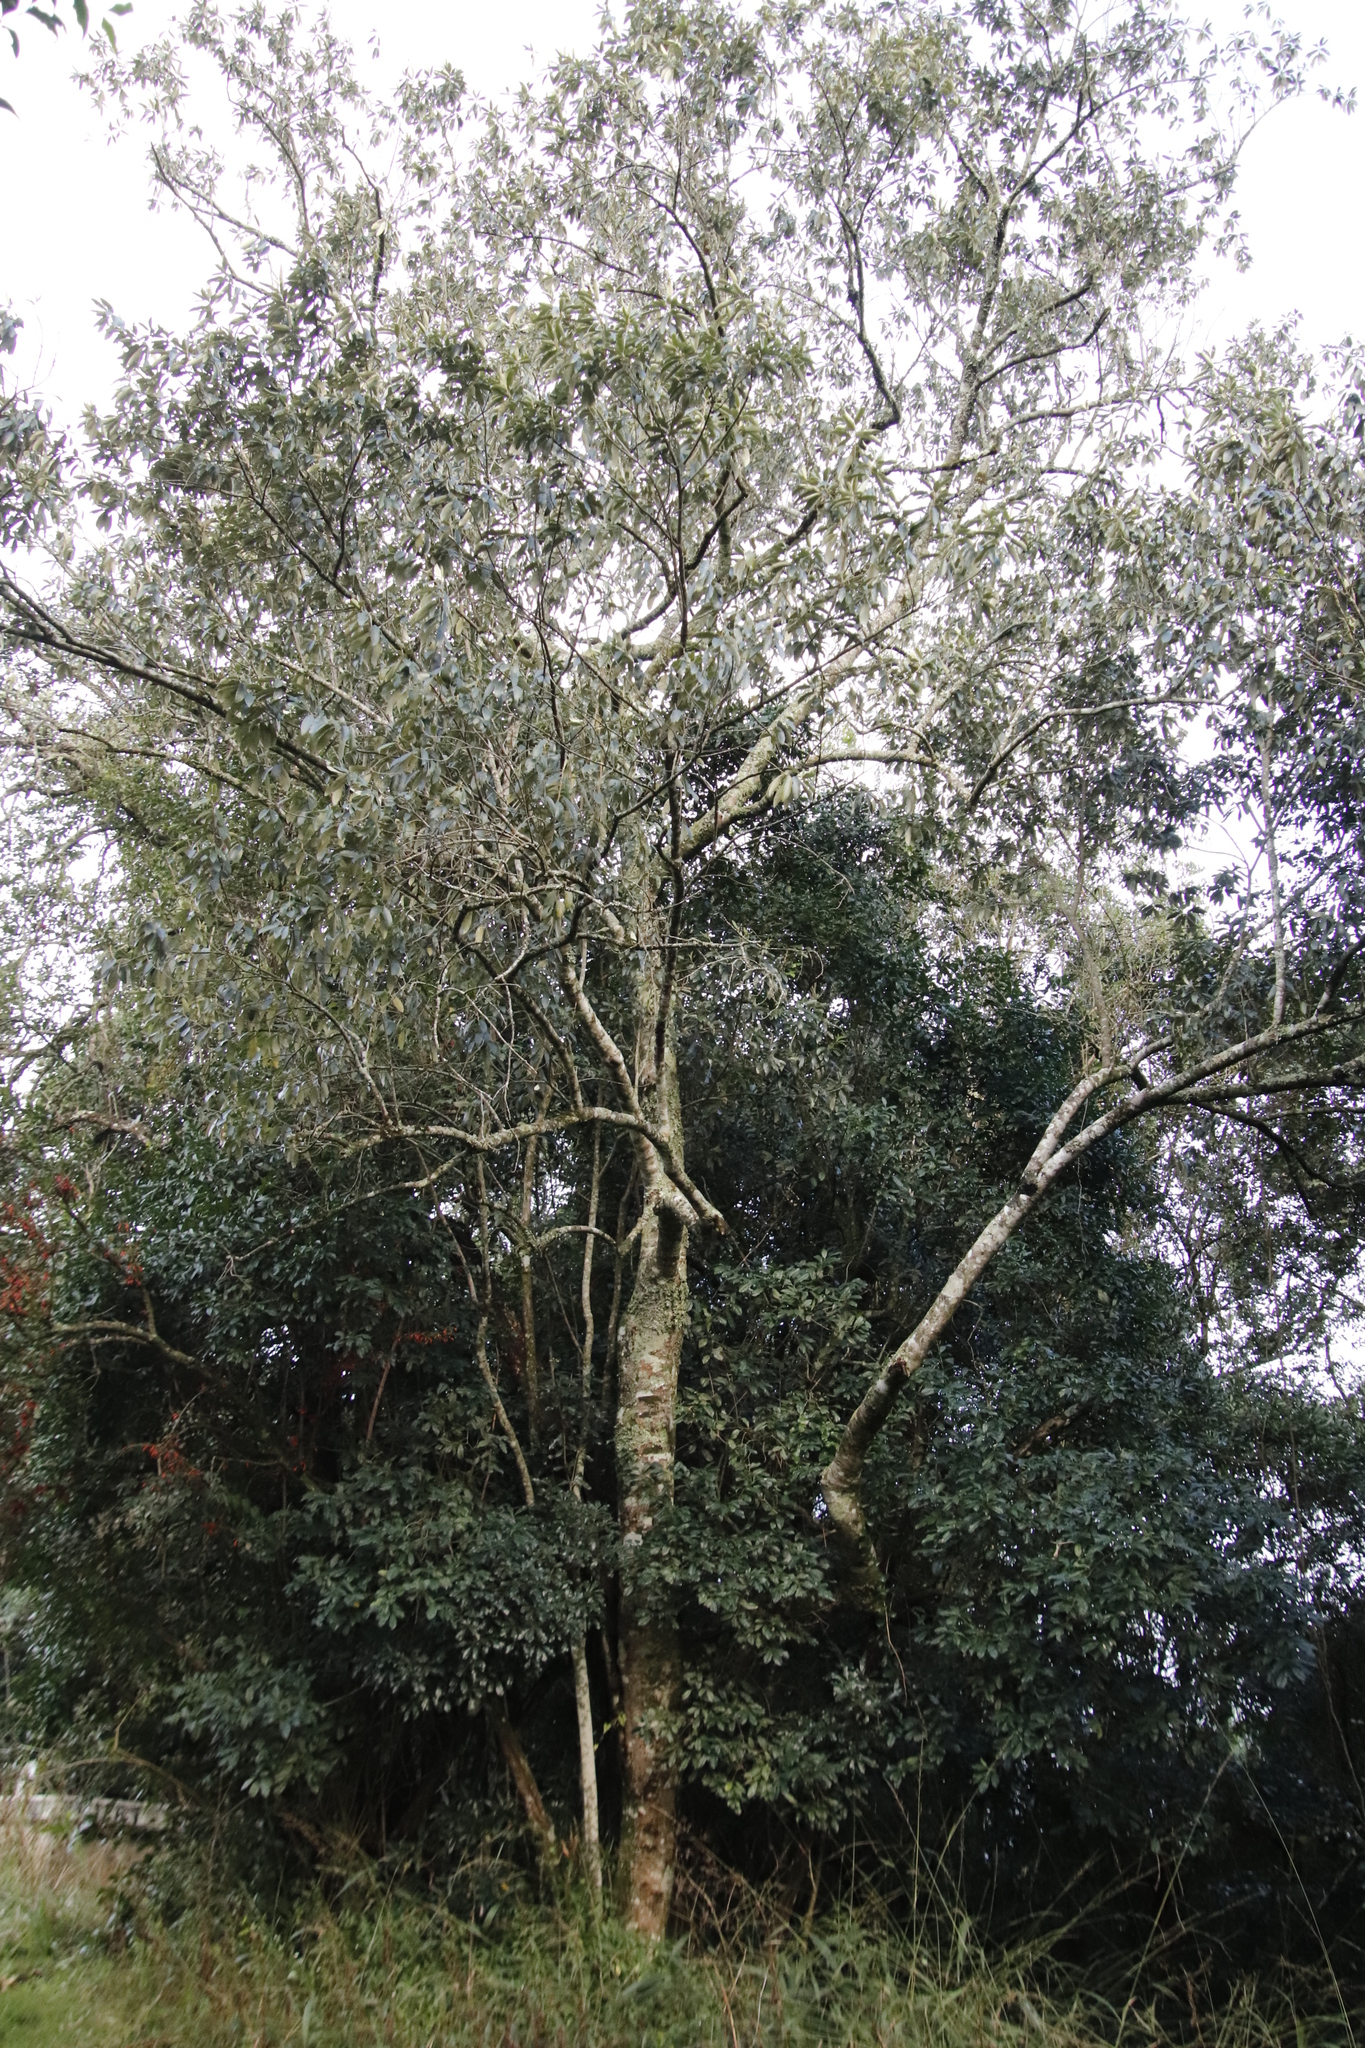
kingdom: Plantae
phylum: Tracheophyta
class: Magnoliopsida
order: Malpighiales
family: Achariaceae
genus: Kiggelaria
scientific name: Kiggelaria africana
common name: Wild peach
